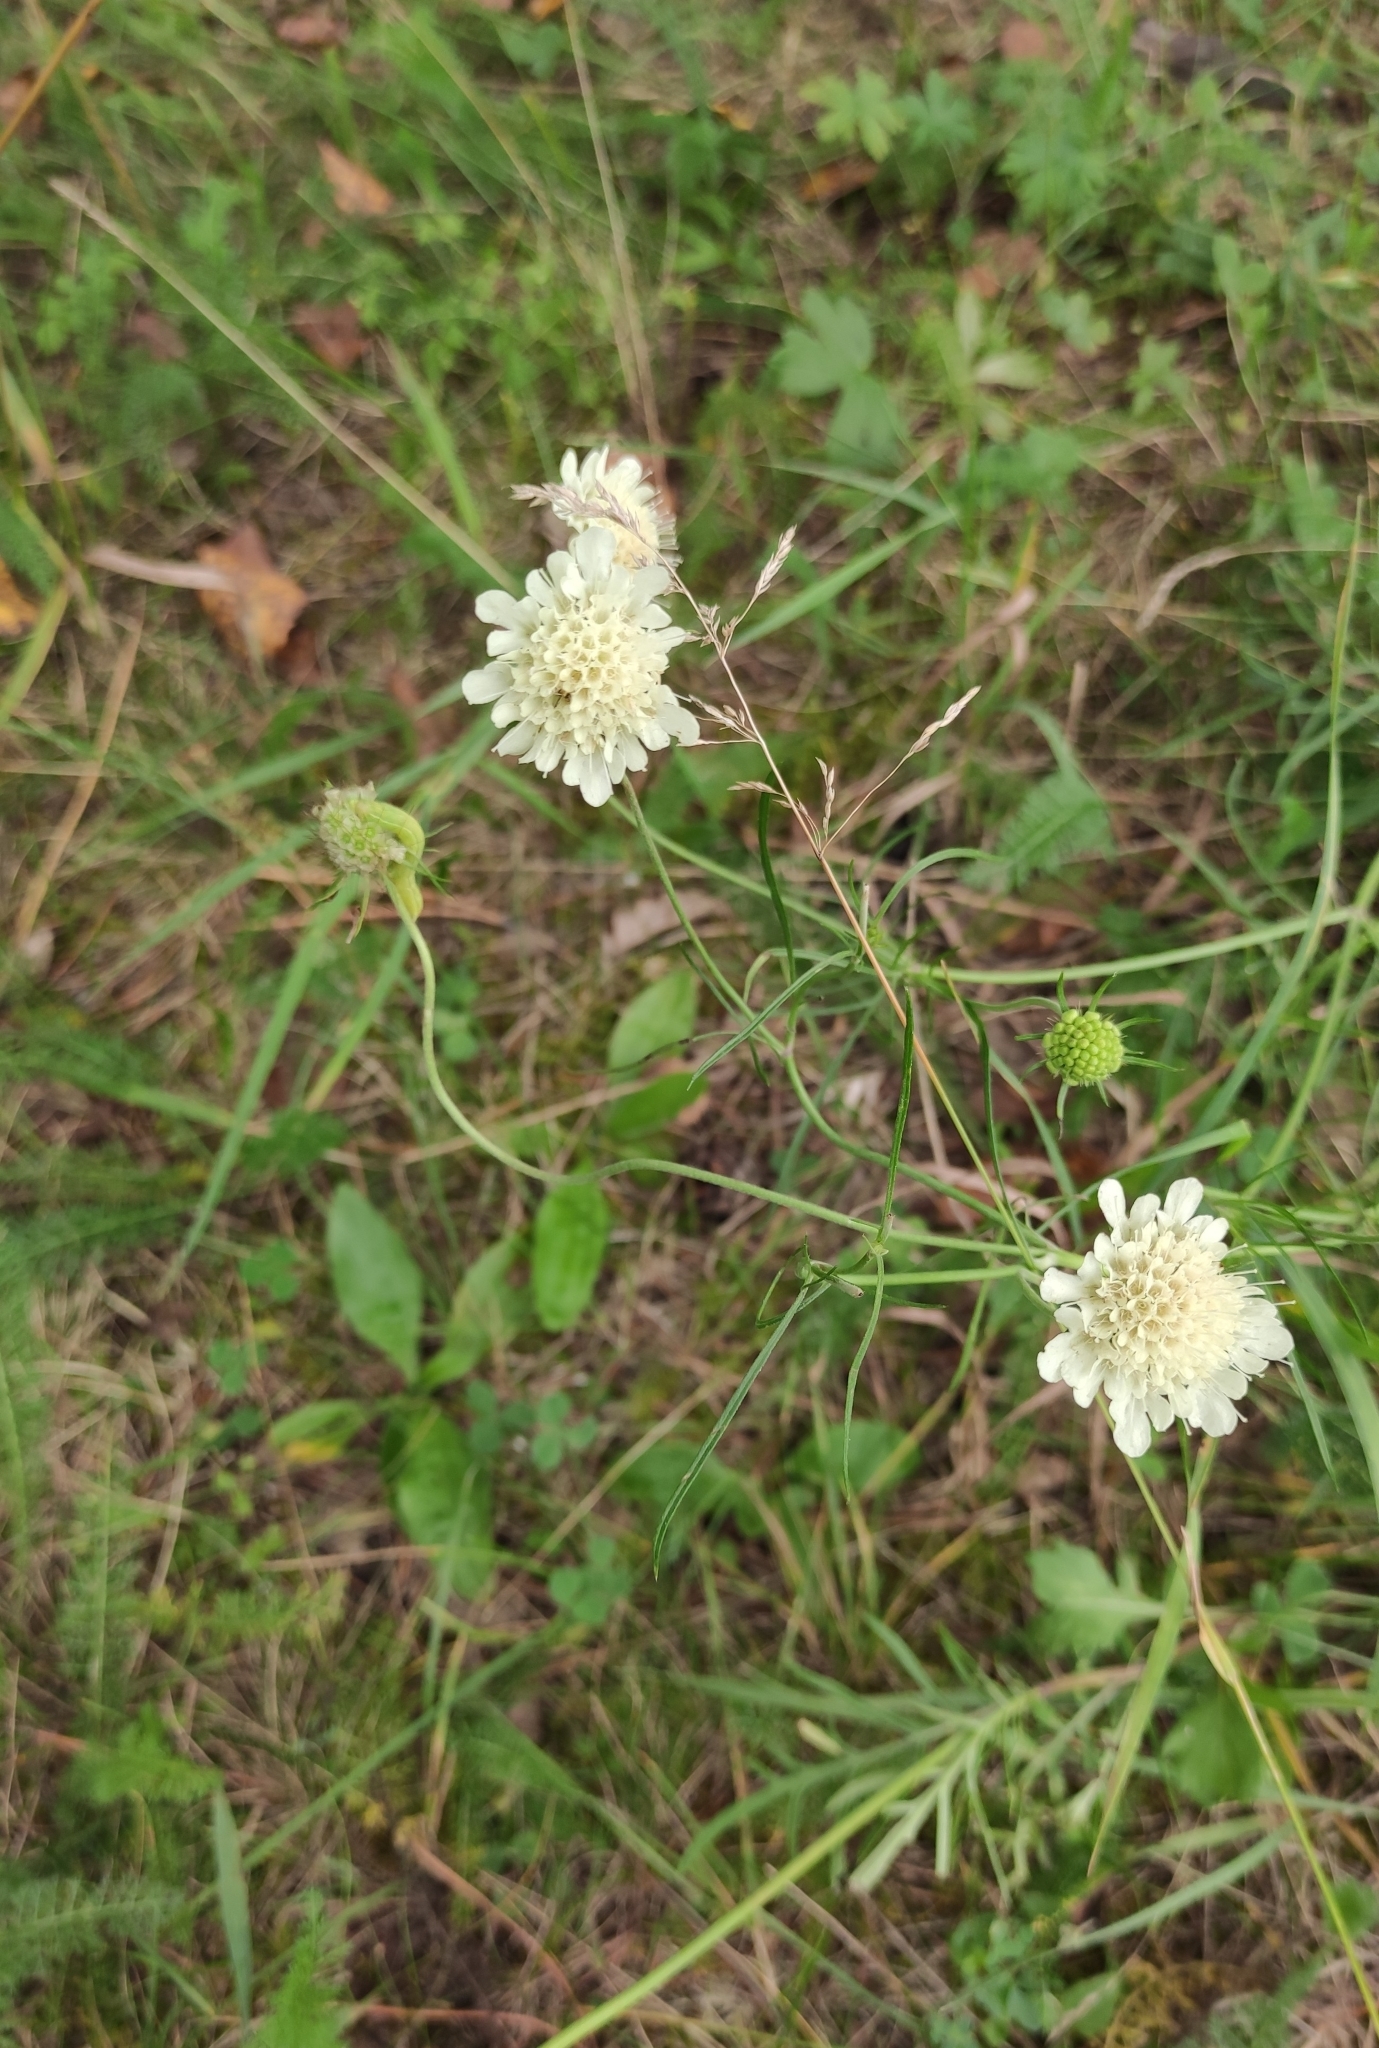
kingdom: Plantae
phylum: Tracheophyta
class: Magnoliopsida
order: Dipsacales
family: Caprifoliaceae
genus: Scabiosa
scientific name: Scabiosa ochroleuca
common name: Cream pincushions
